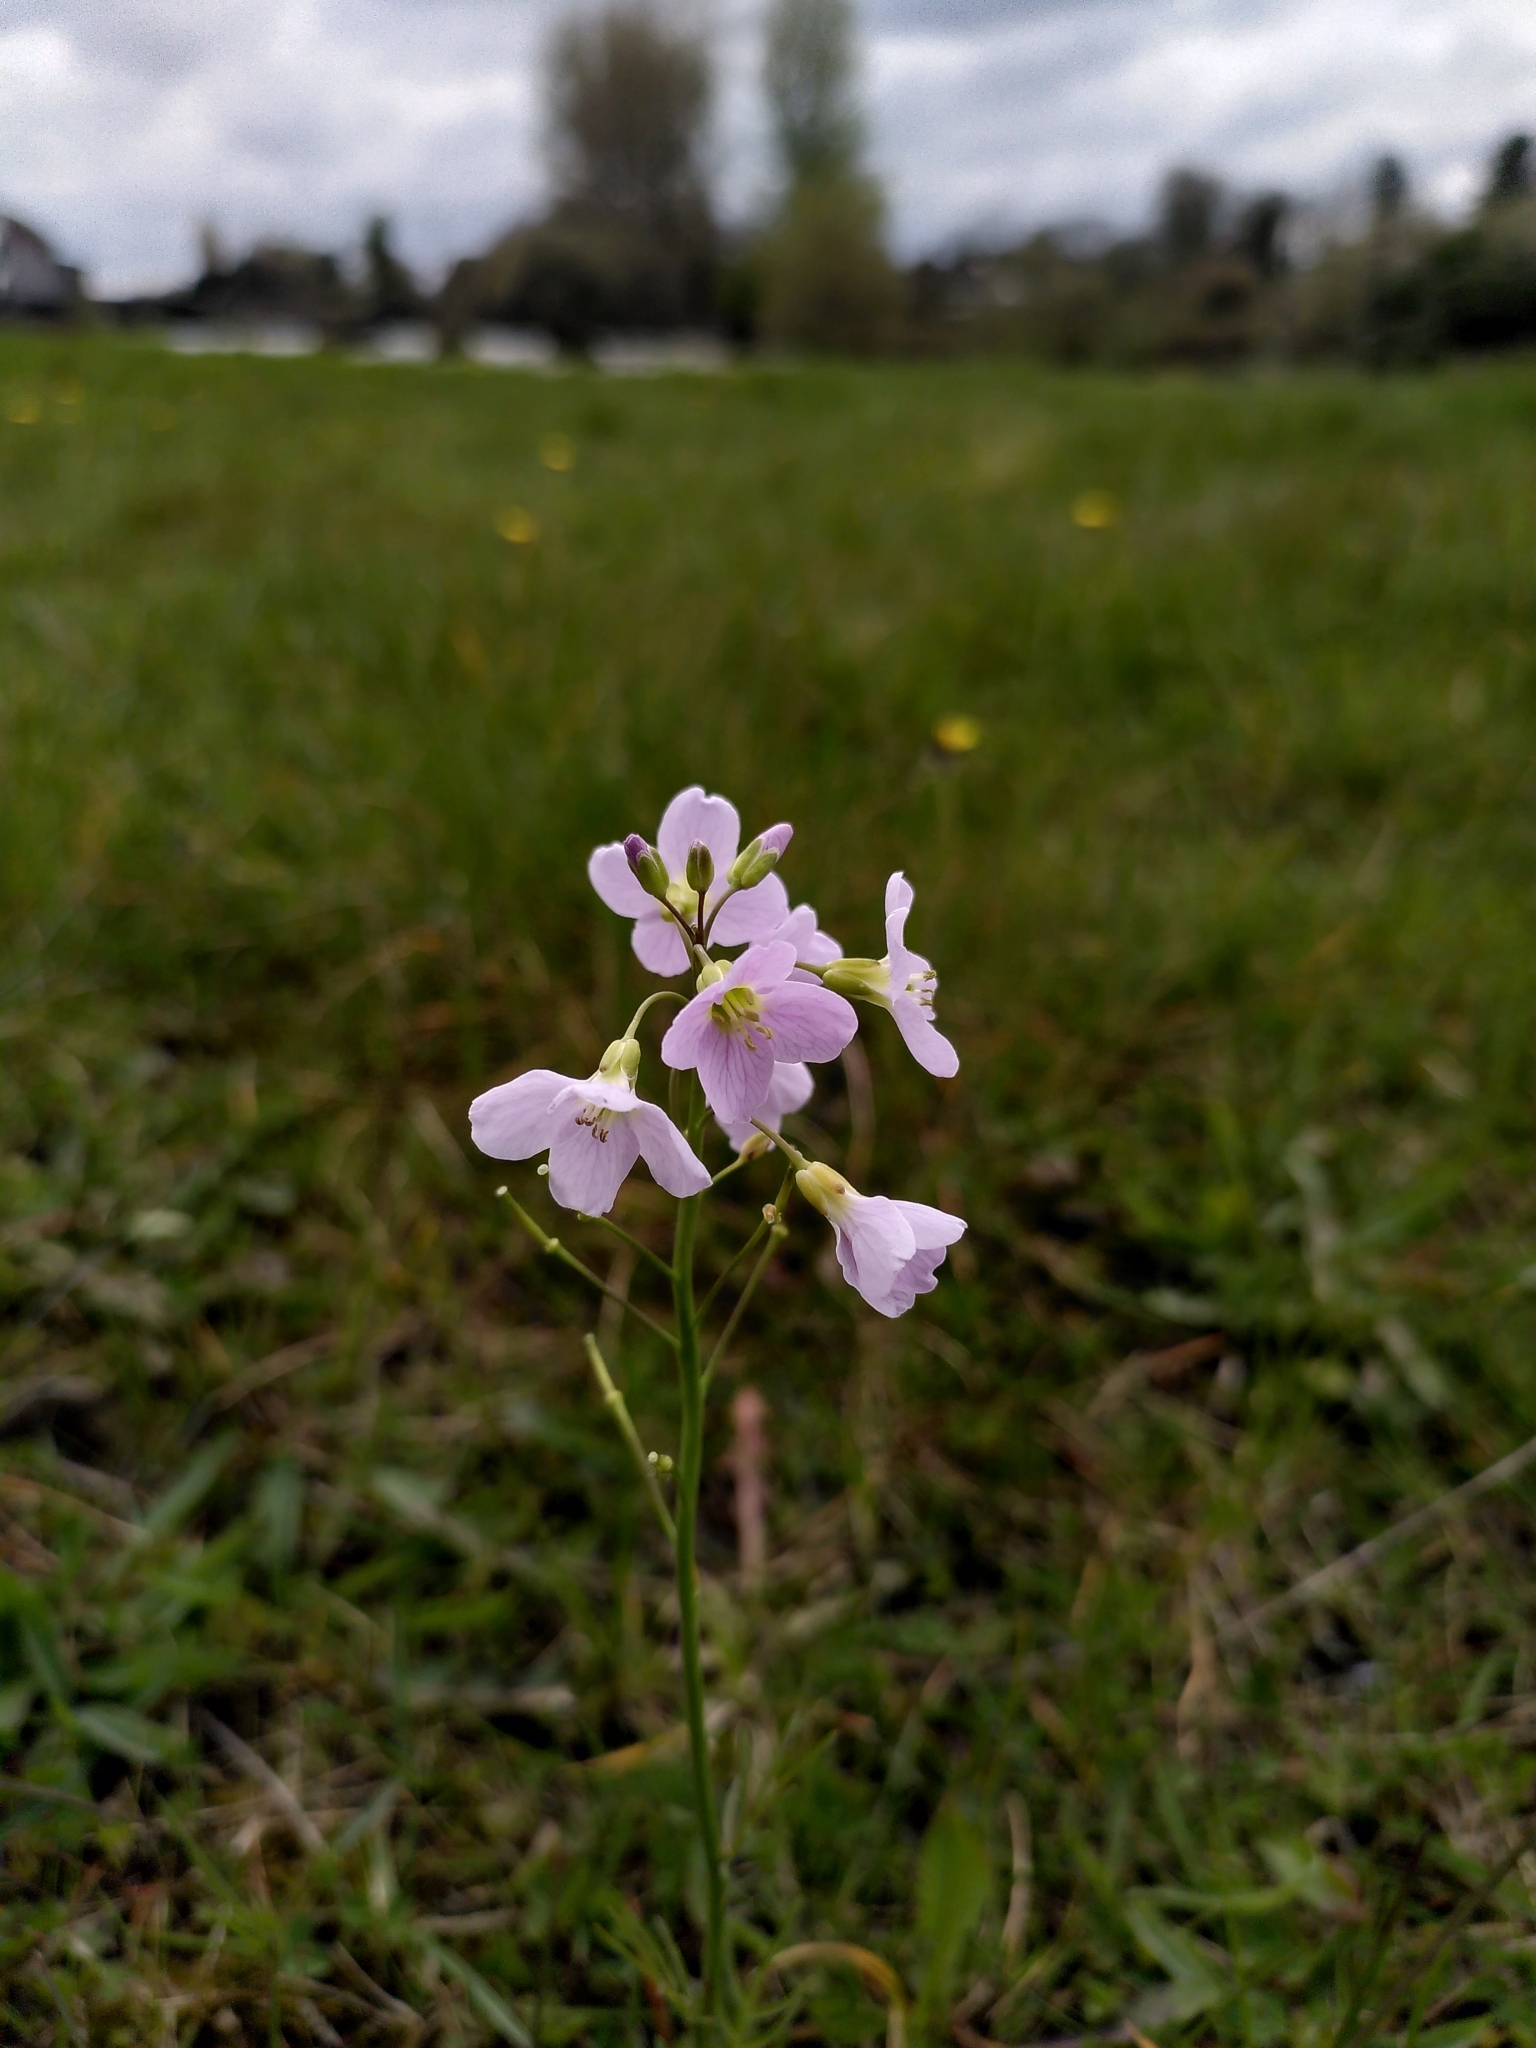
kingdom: Plantae
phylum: Tracheophyta
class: Magnoliopsida
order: Brassicales
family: Brassicaceae
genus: Cardamine
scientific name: Cardamine pratensis
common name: Cuckoo flower
